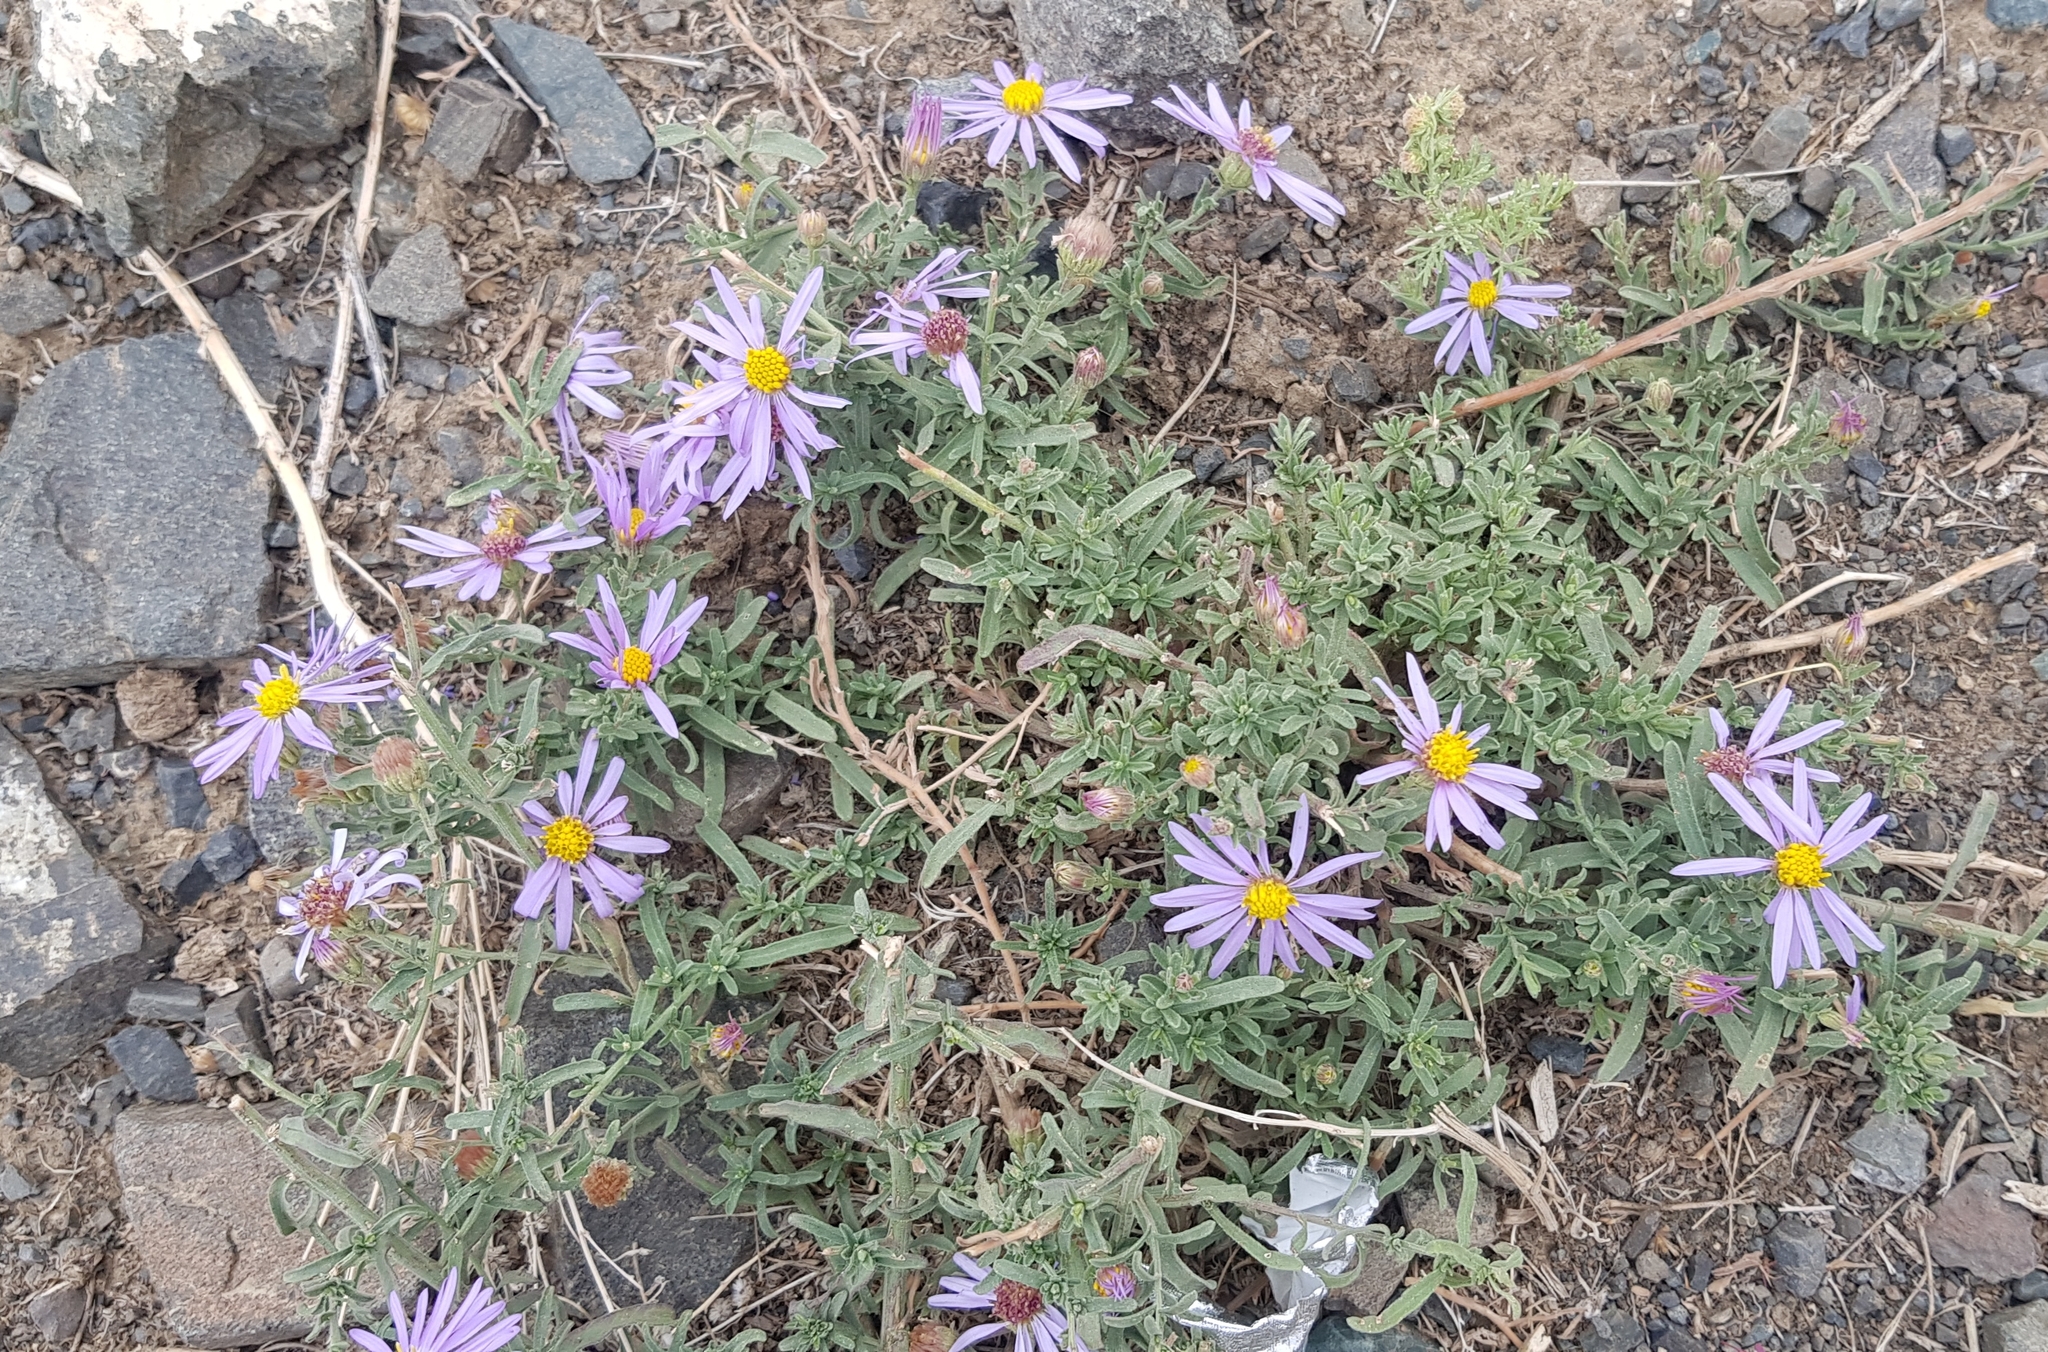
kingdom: Plantae
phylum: Tracheophyta
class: Magnoliopsida
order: Asterales
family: Asteraceae
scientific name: Asteraceae
